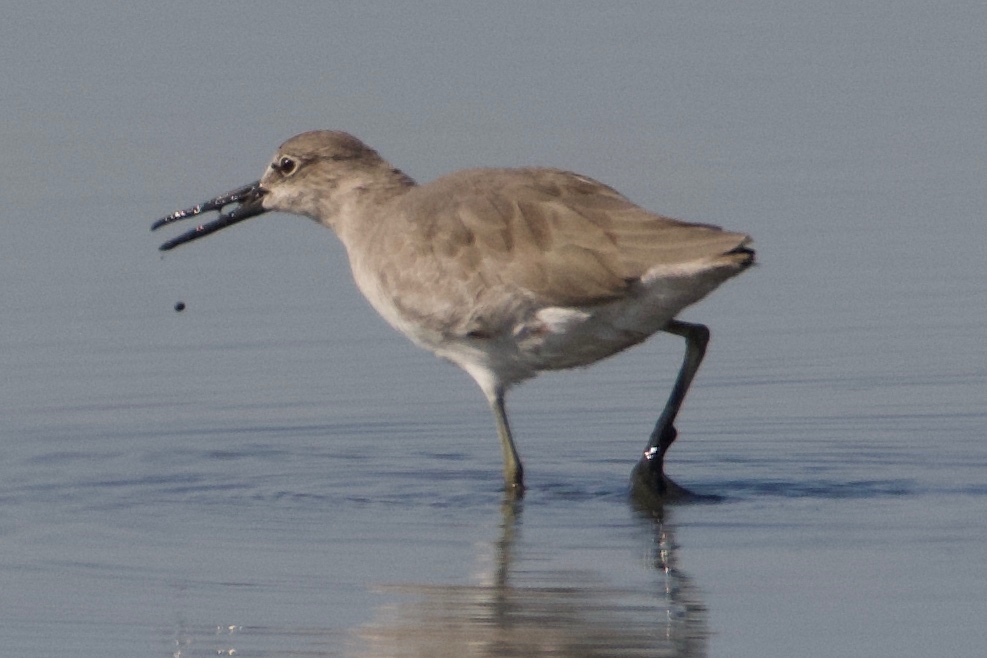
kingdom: Animalia
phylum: Chordata
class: Aves
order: Charadriiformes
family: Scolopacidae
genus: Tringa
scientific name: Tringa semipalmata
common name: Willet
